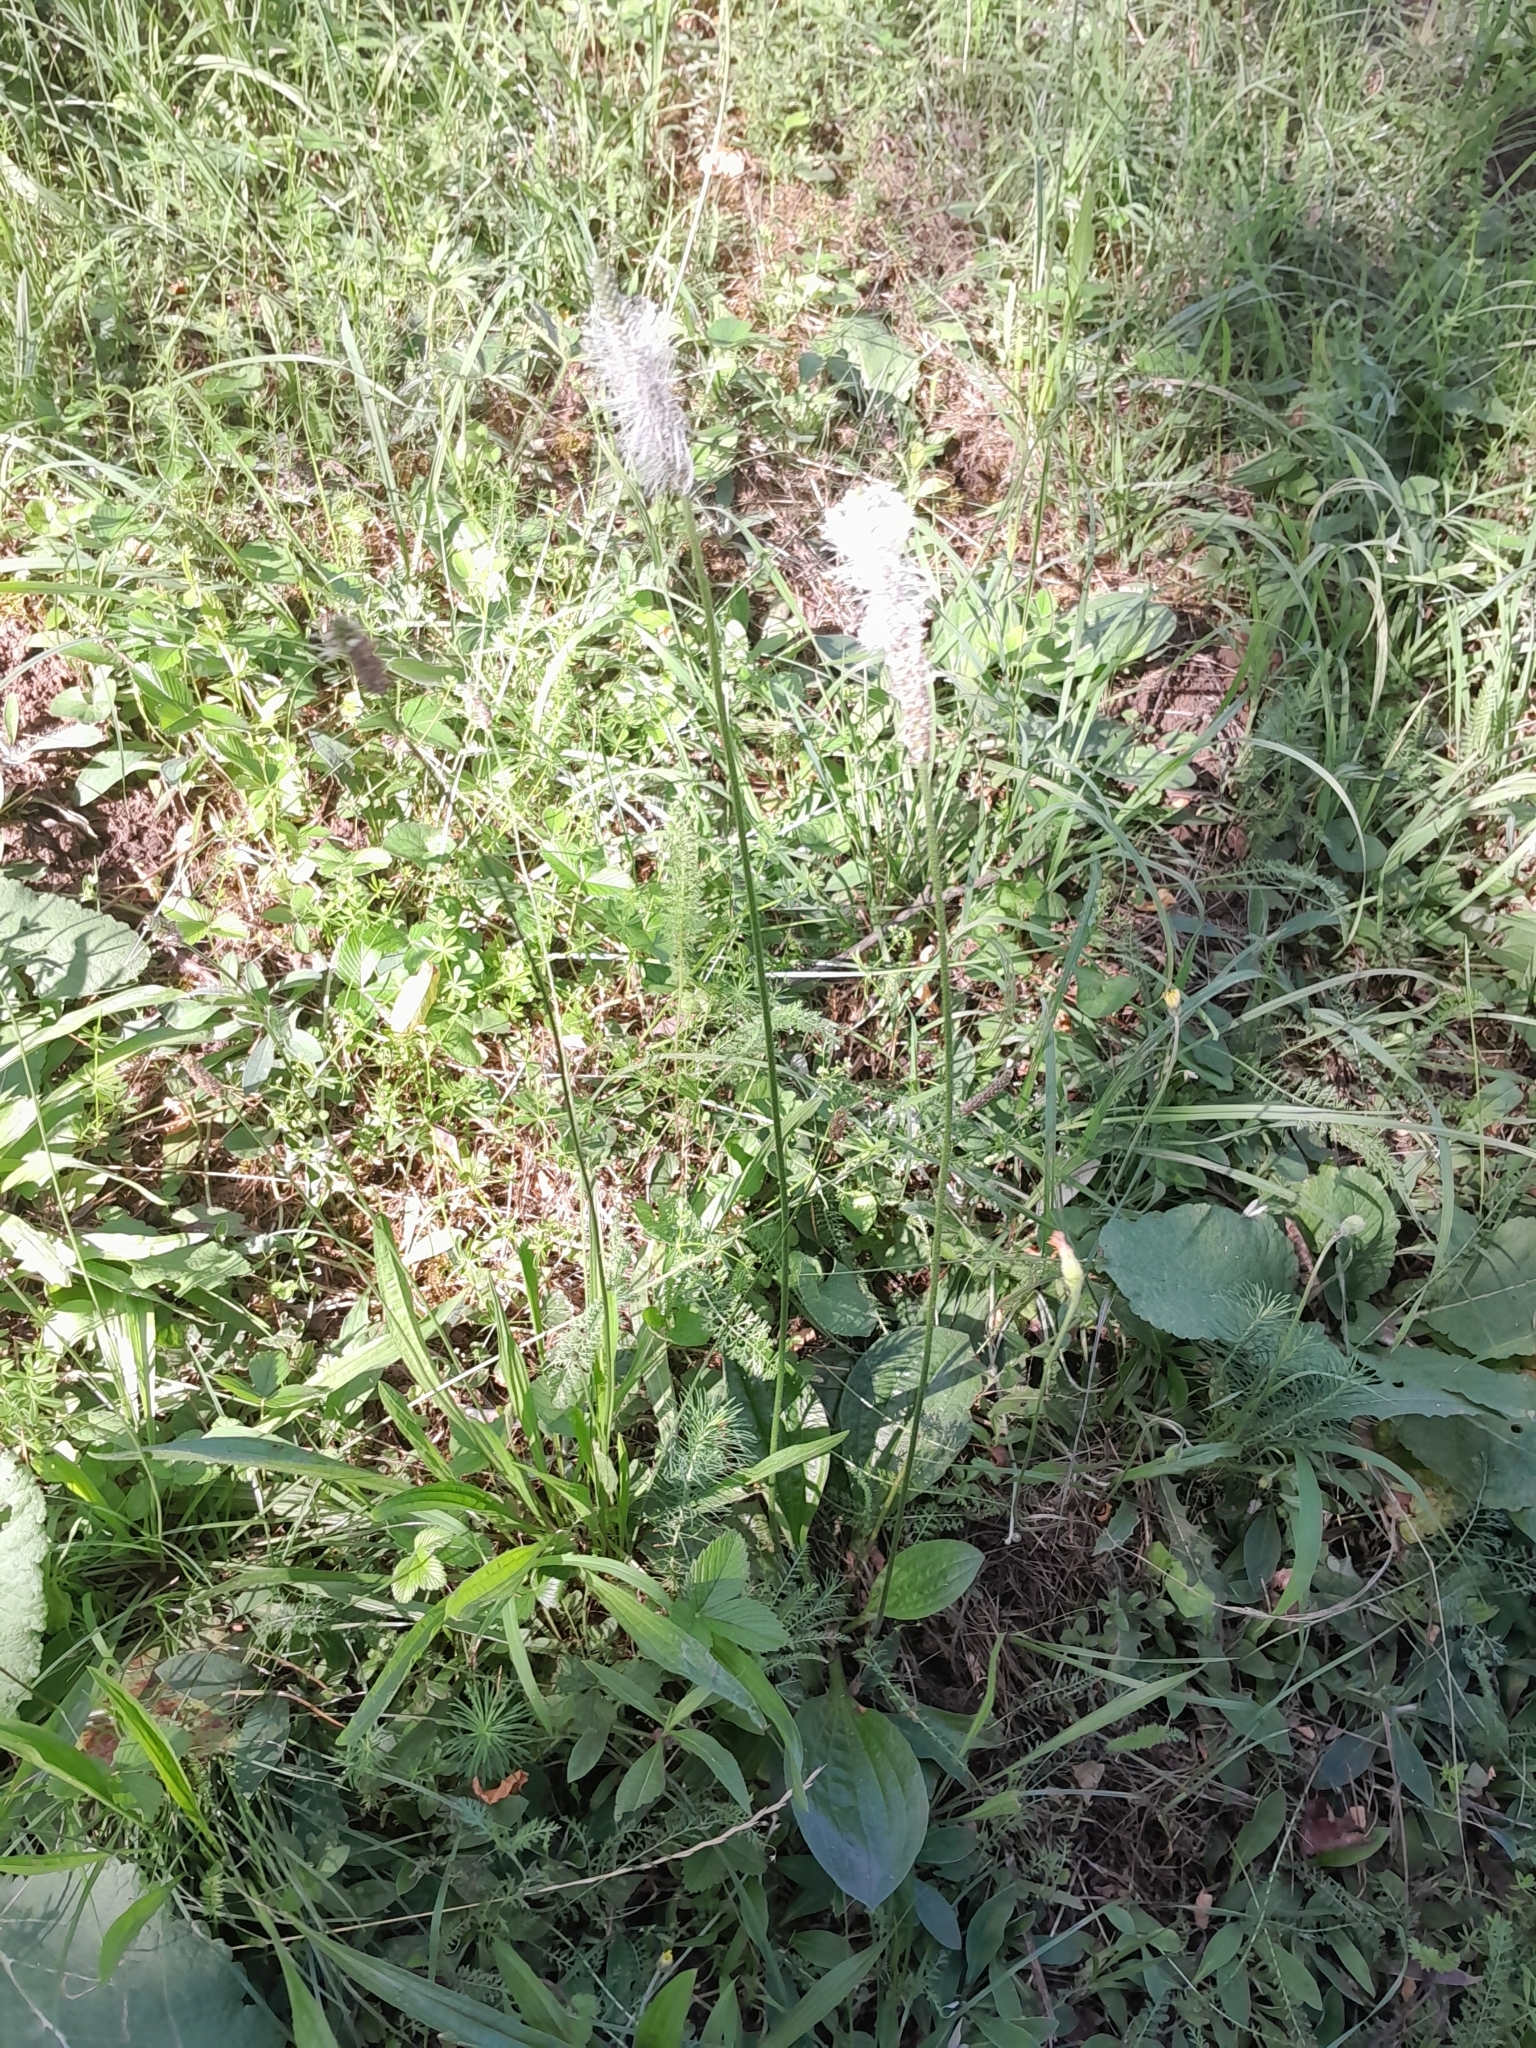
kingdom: Plantae
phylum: Tracheophyta
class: Magnoliopsida
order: Lamiales
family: Plantaginaceae
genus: Plantago
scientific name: Plantago media
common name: Hoary plantain
